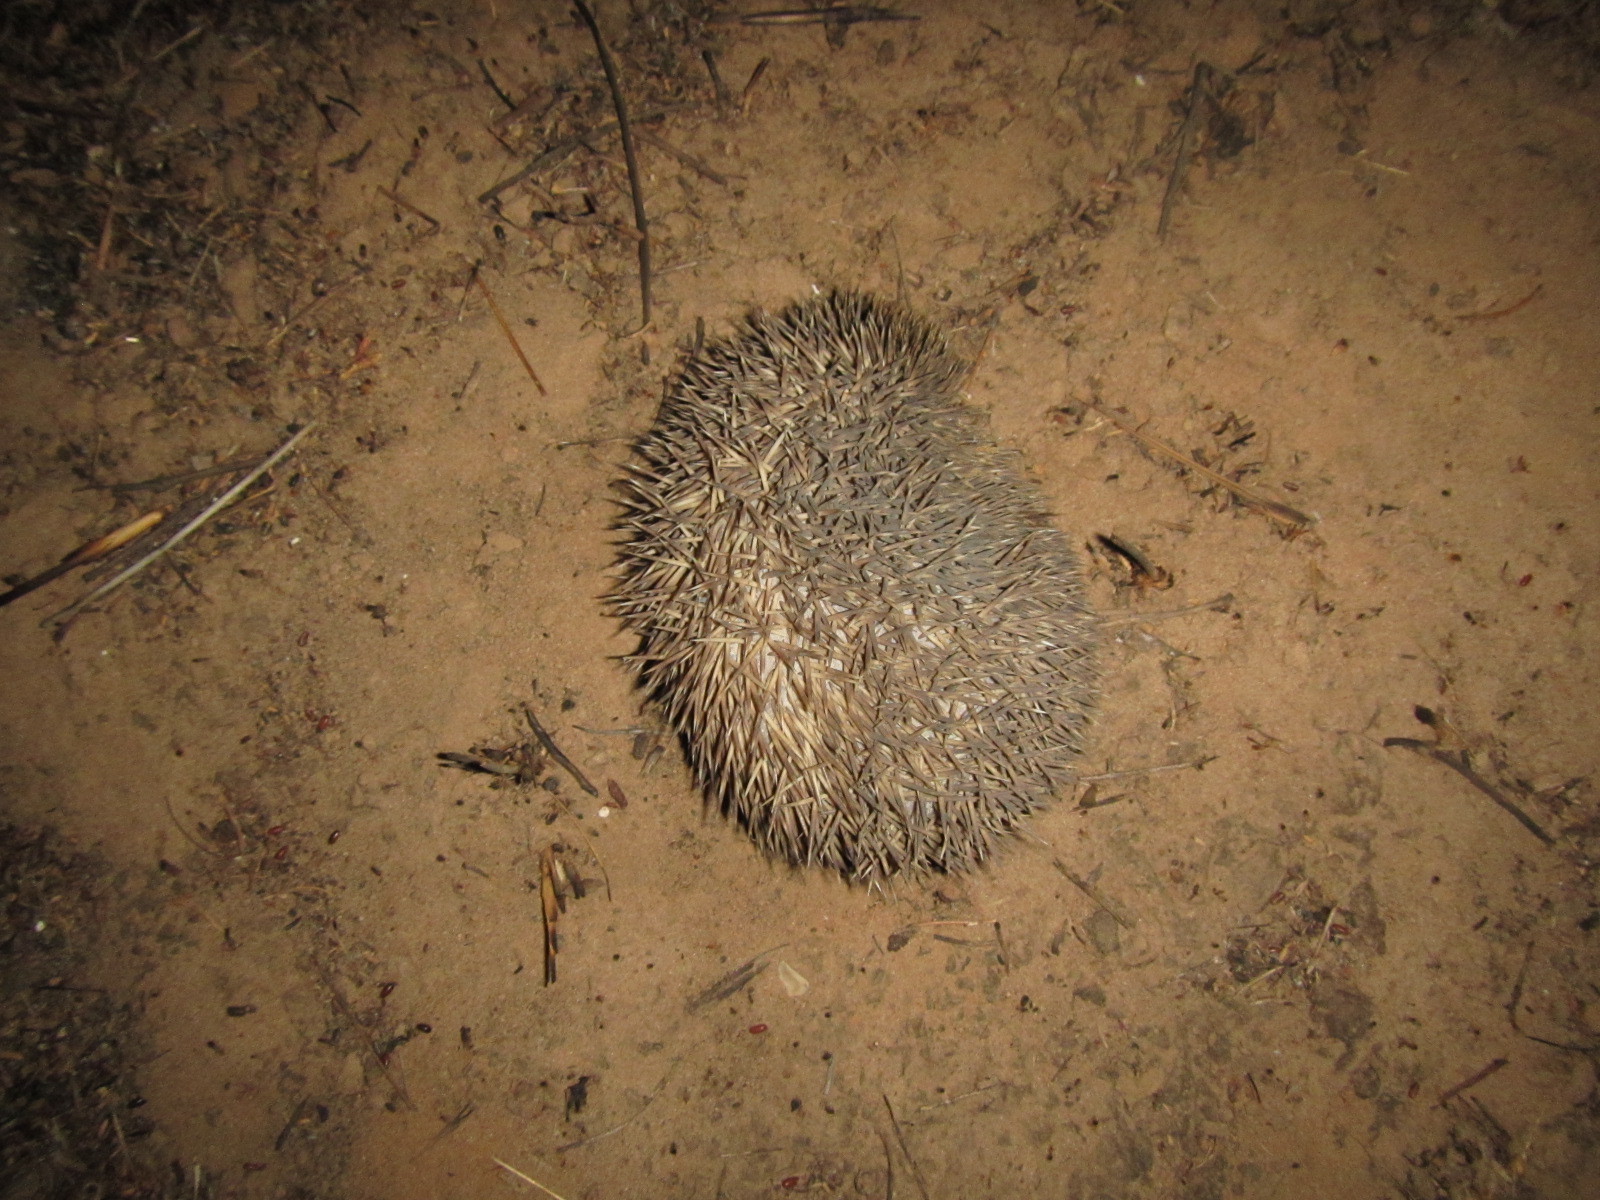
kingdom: Animalia
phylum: Chordata
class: Mammalia
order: Erinaceomorpha
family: Erinaceidae
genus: Atelerix
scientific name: Atelerix albiventris
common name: Four-toed hedgehog
